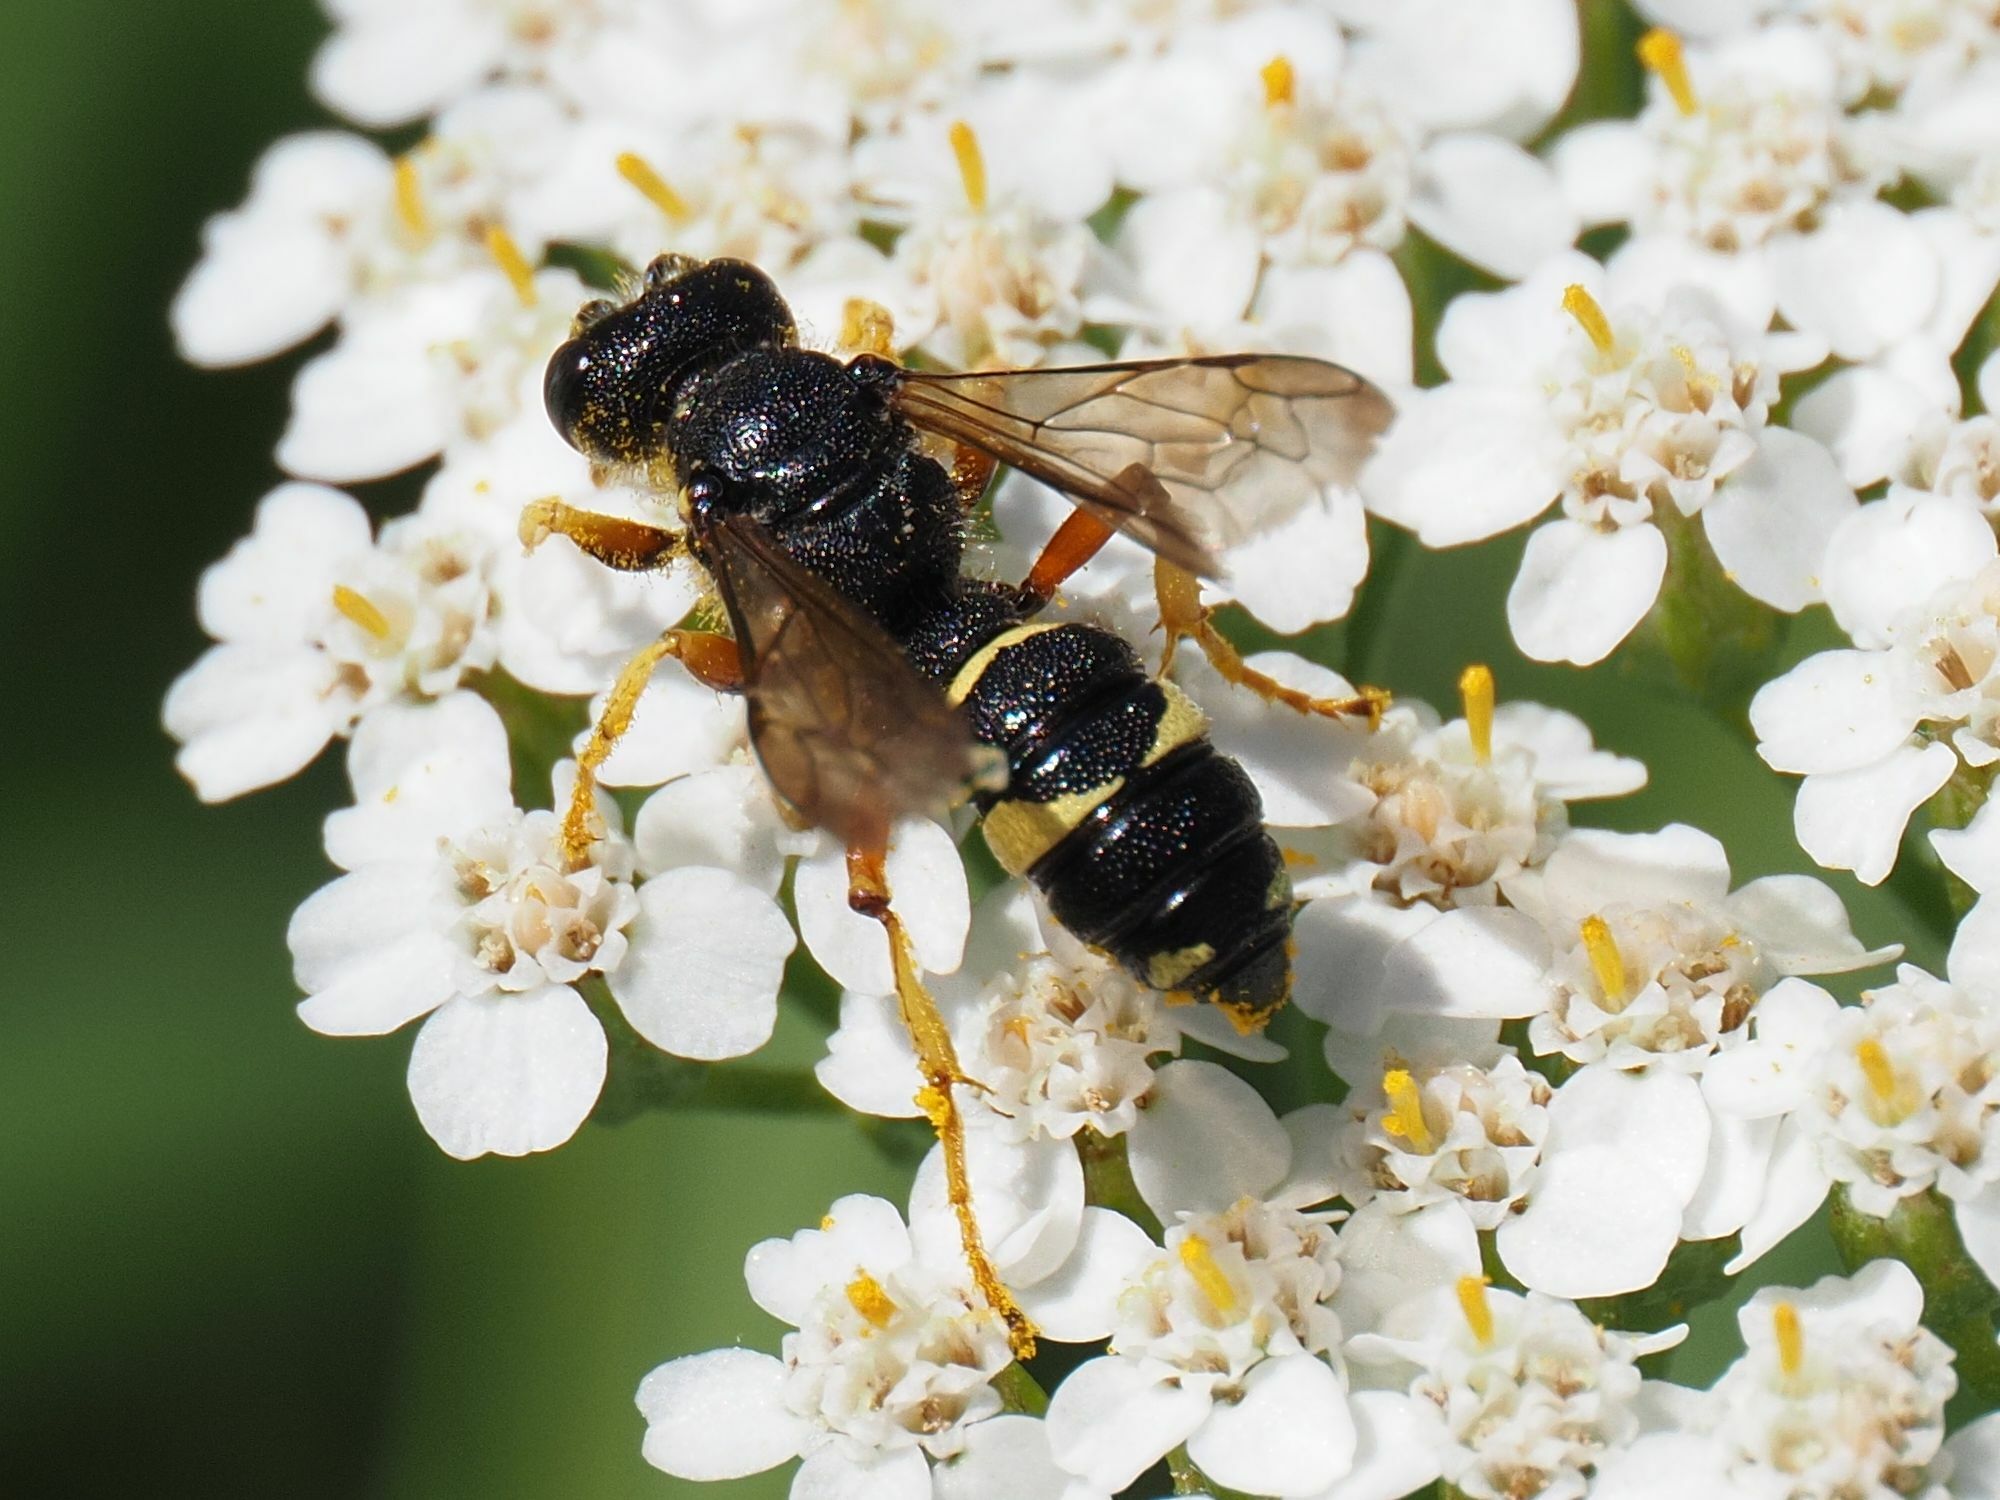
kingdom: Animalia
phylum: Arthropoda
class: Insecta
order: Hymenoptera
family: Crabronidae
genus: Cerceris
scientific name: Cerceris rybyensis
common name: Ornate tailed digger wasp
